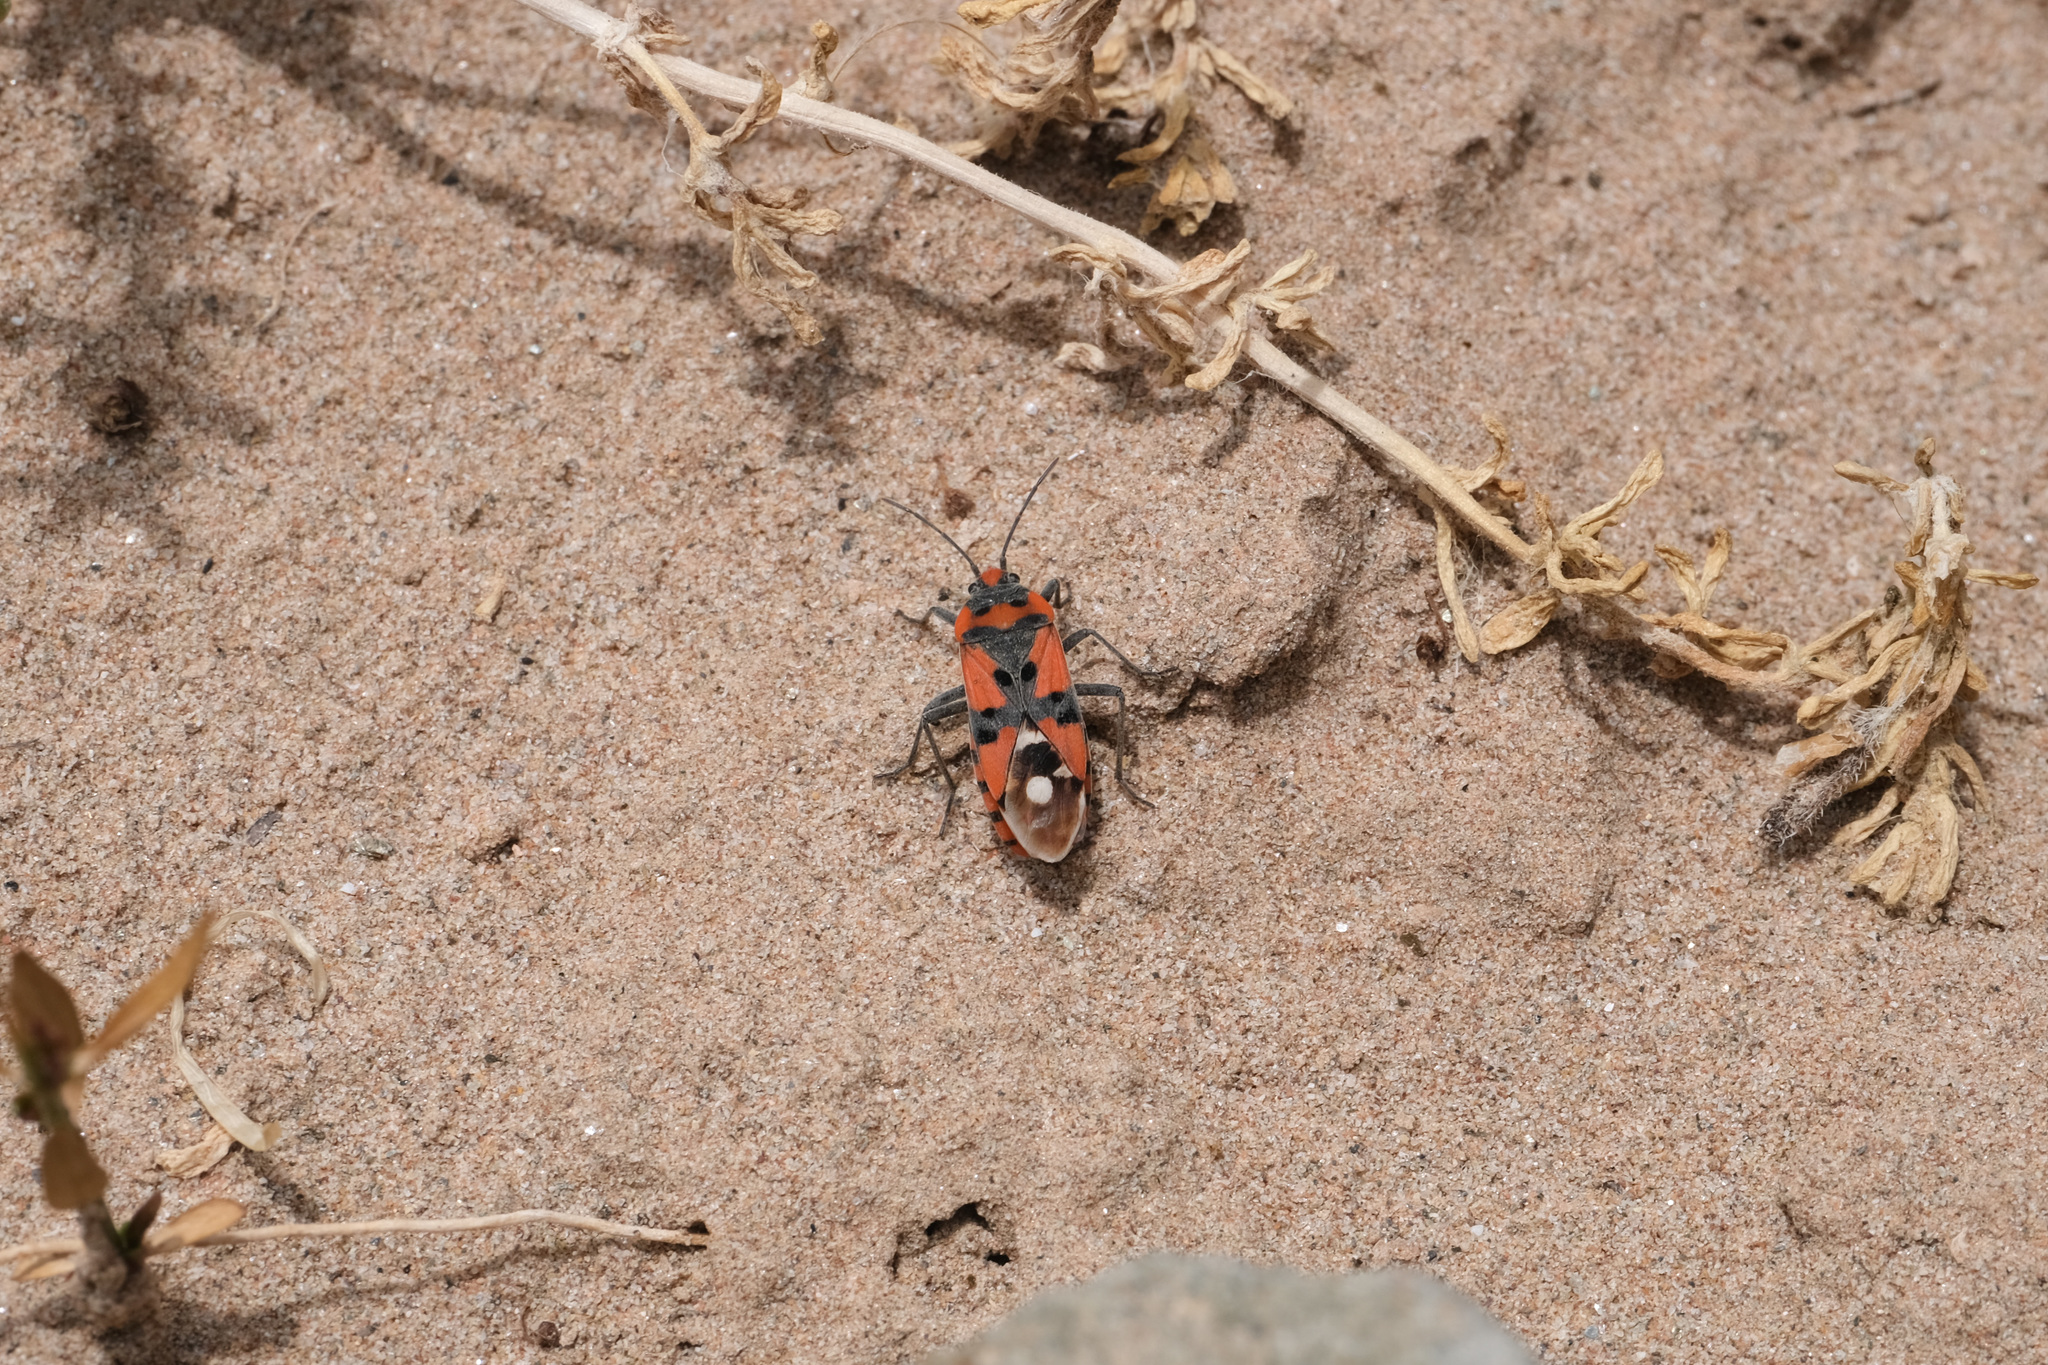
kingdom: Animalia
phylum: Arthropoda
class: Insecta
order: Hemiptera
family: Lygaeidae
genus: Lygaeus
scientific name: Lygaeus equestris
